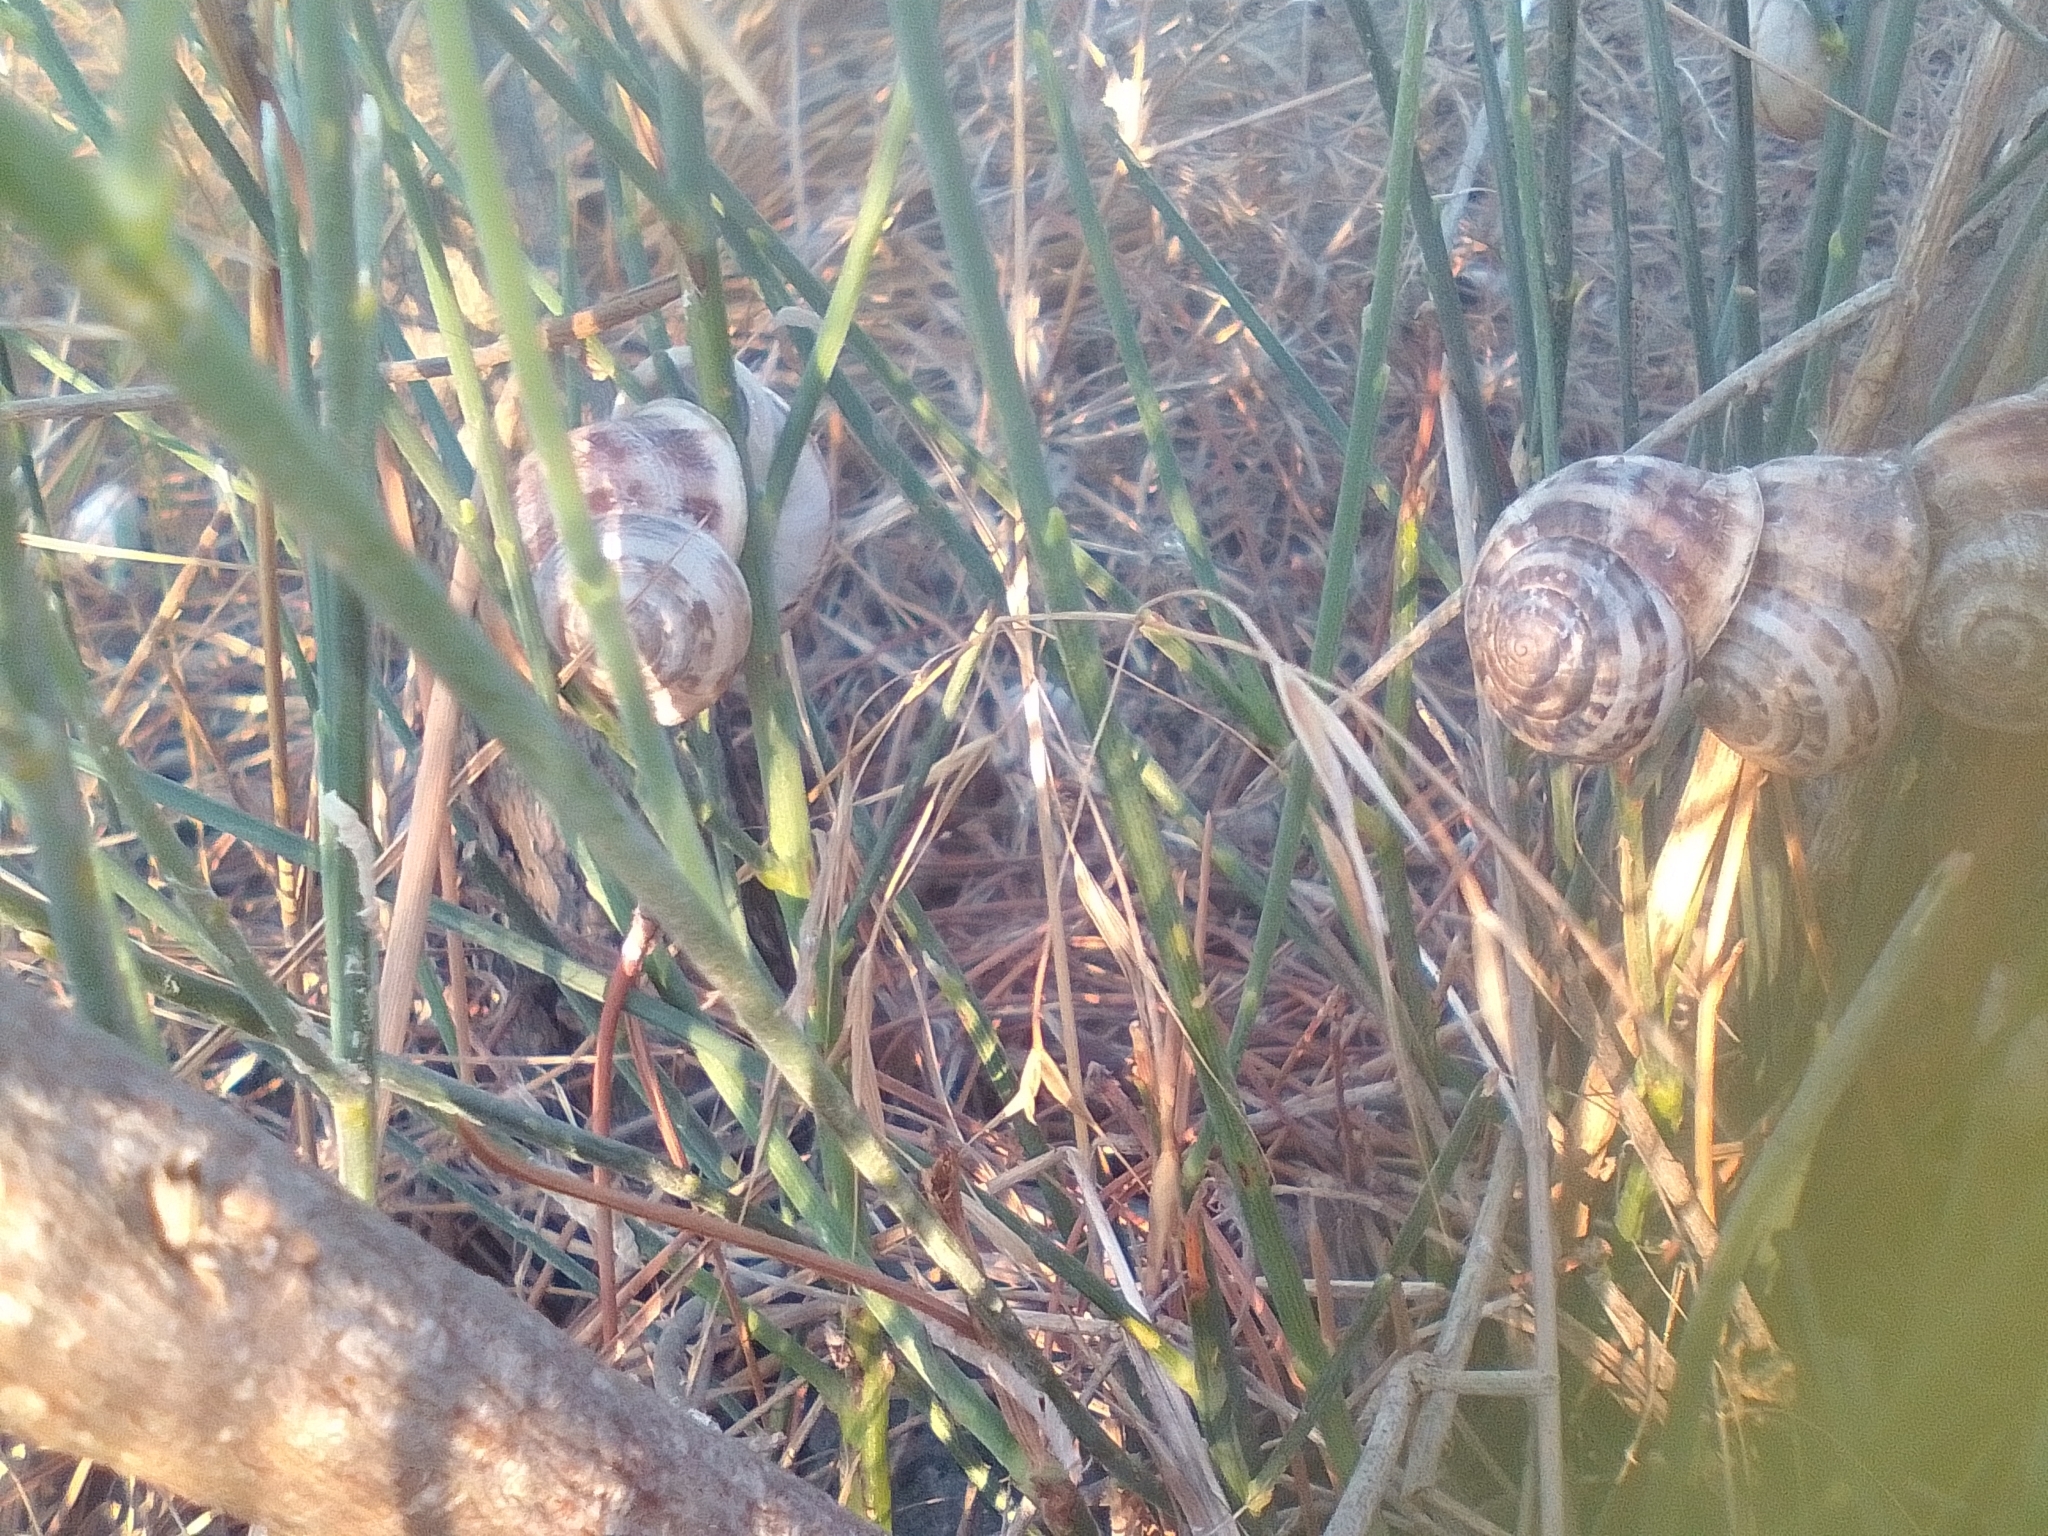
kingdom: Animalia
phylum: Mollusca
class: Gastropoda
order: Stylommatophora
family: Helicidae
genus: Eobania
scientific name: Eobania vermiculata
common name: Chocolateband snail
